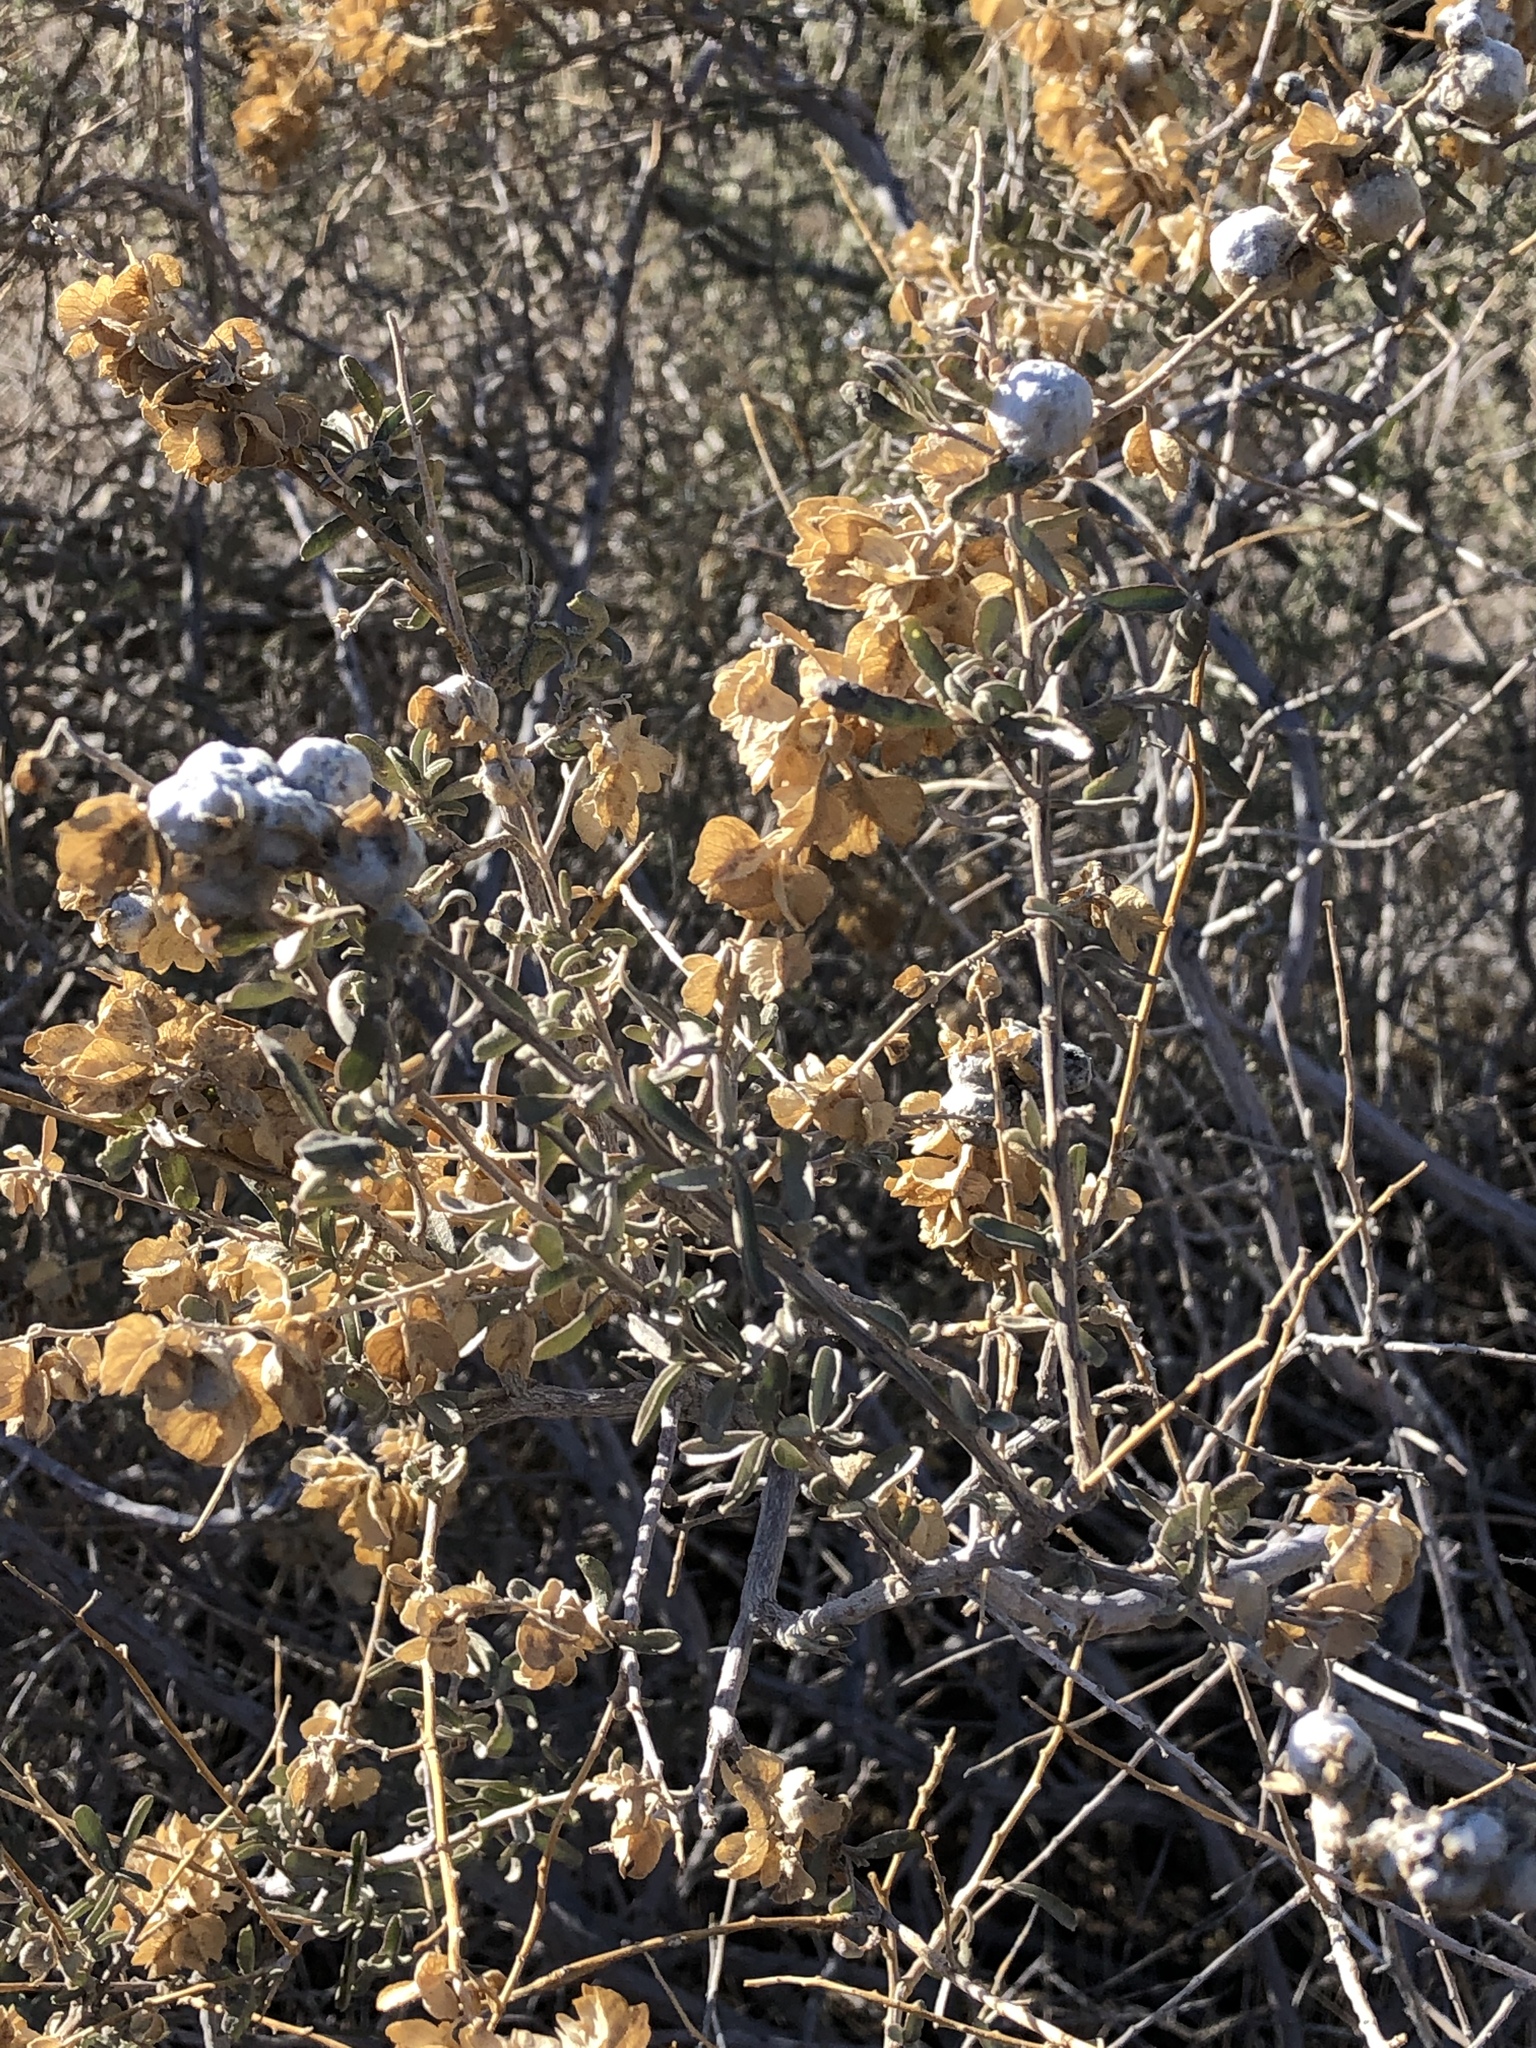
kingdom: Animalia
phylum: Arthropoda
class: Insecta
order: Diptera
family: Cecidomyiidae
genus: Asphondylia
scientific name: Asphondylia neomexicana
